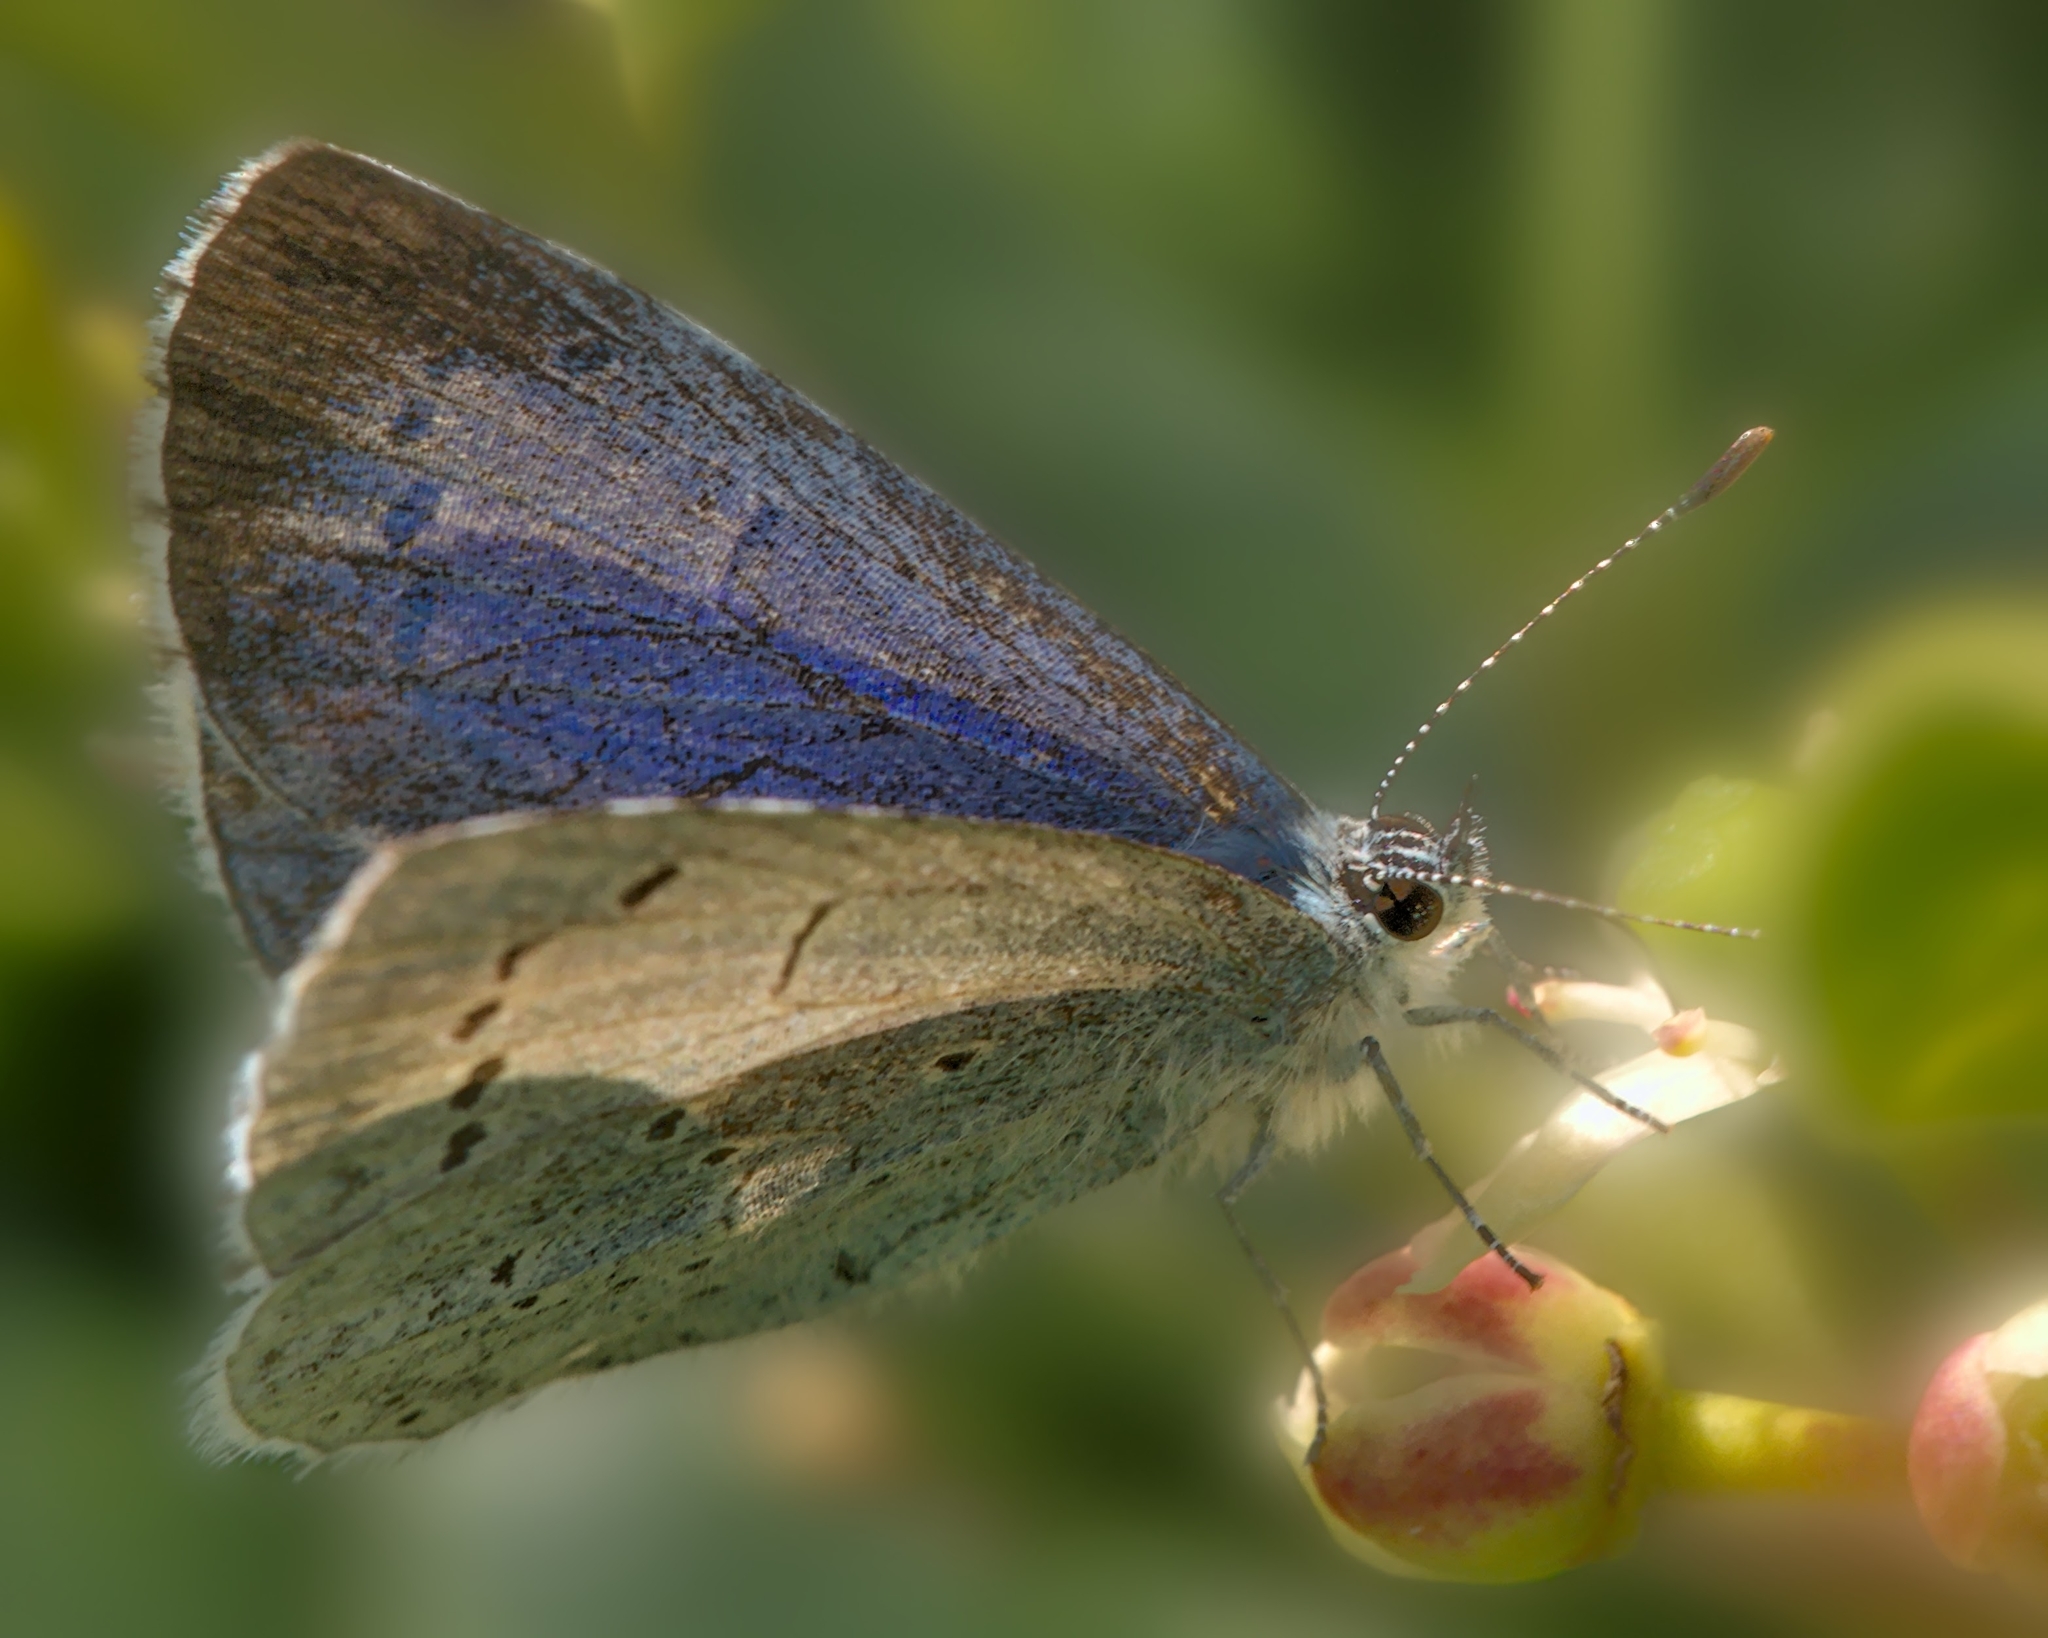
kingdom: Animalia
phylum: Arthropoda
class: Insecta
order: Lepidoptera
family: Lycaenidae
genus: Celastrina
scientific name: Celastrina argiolus
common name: Holly blue
